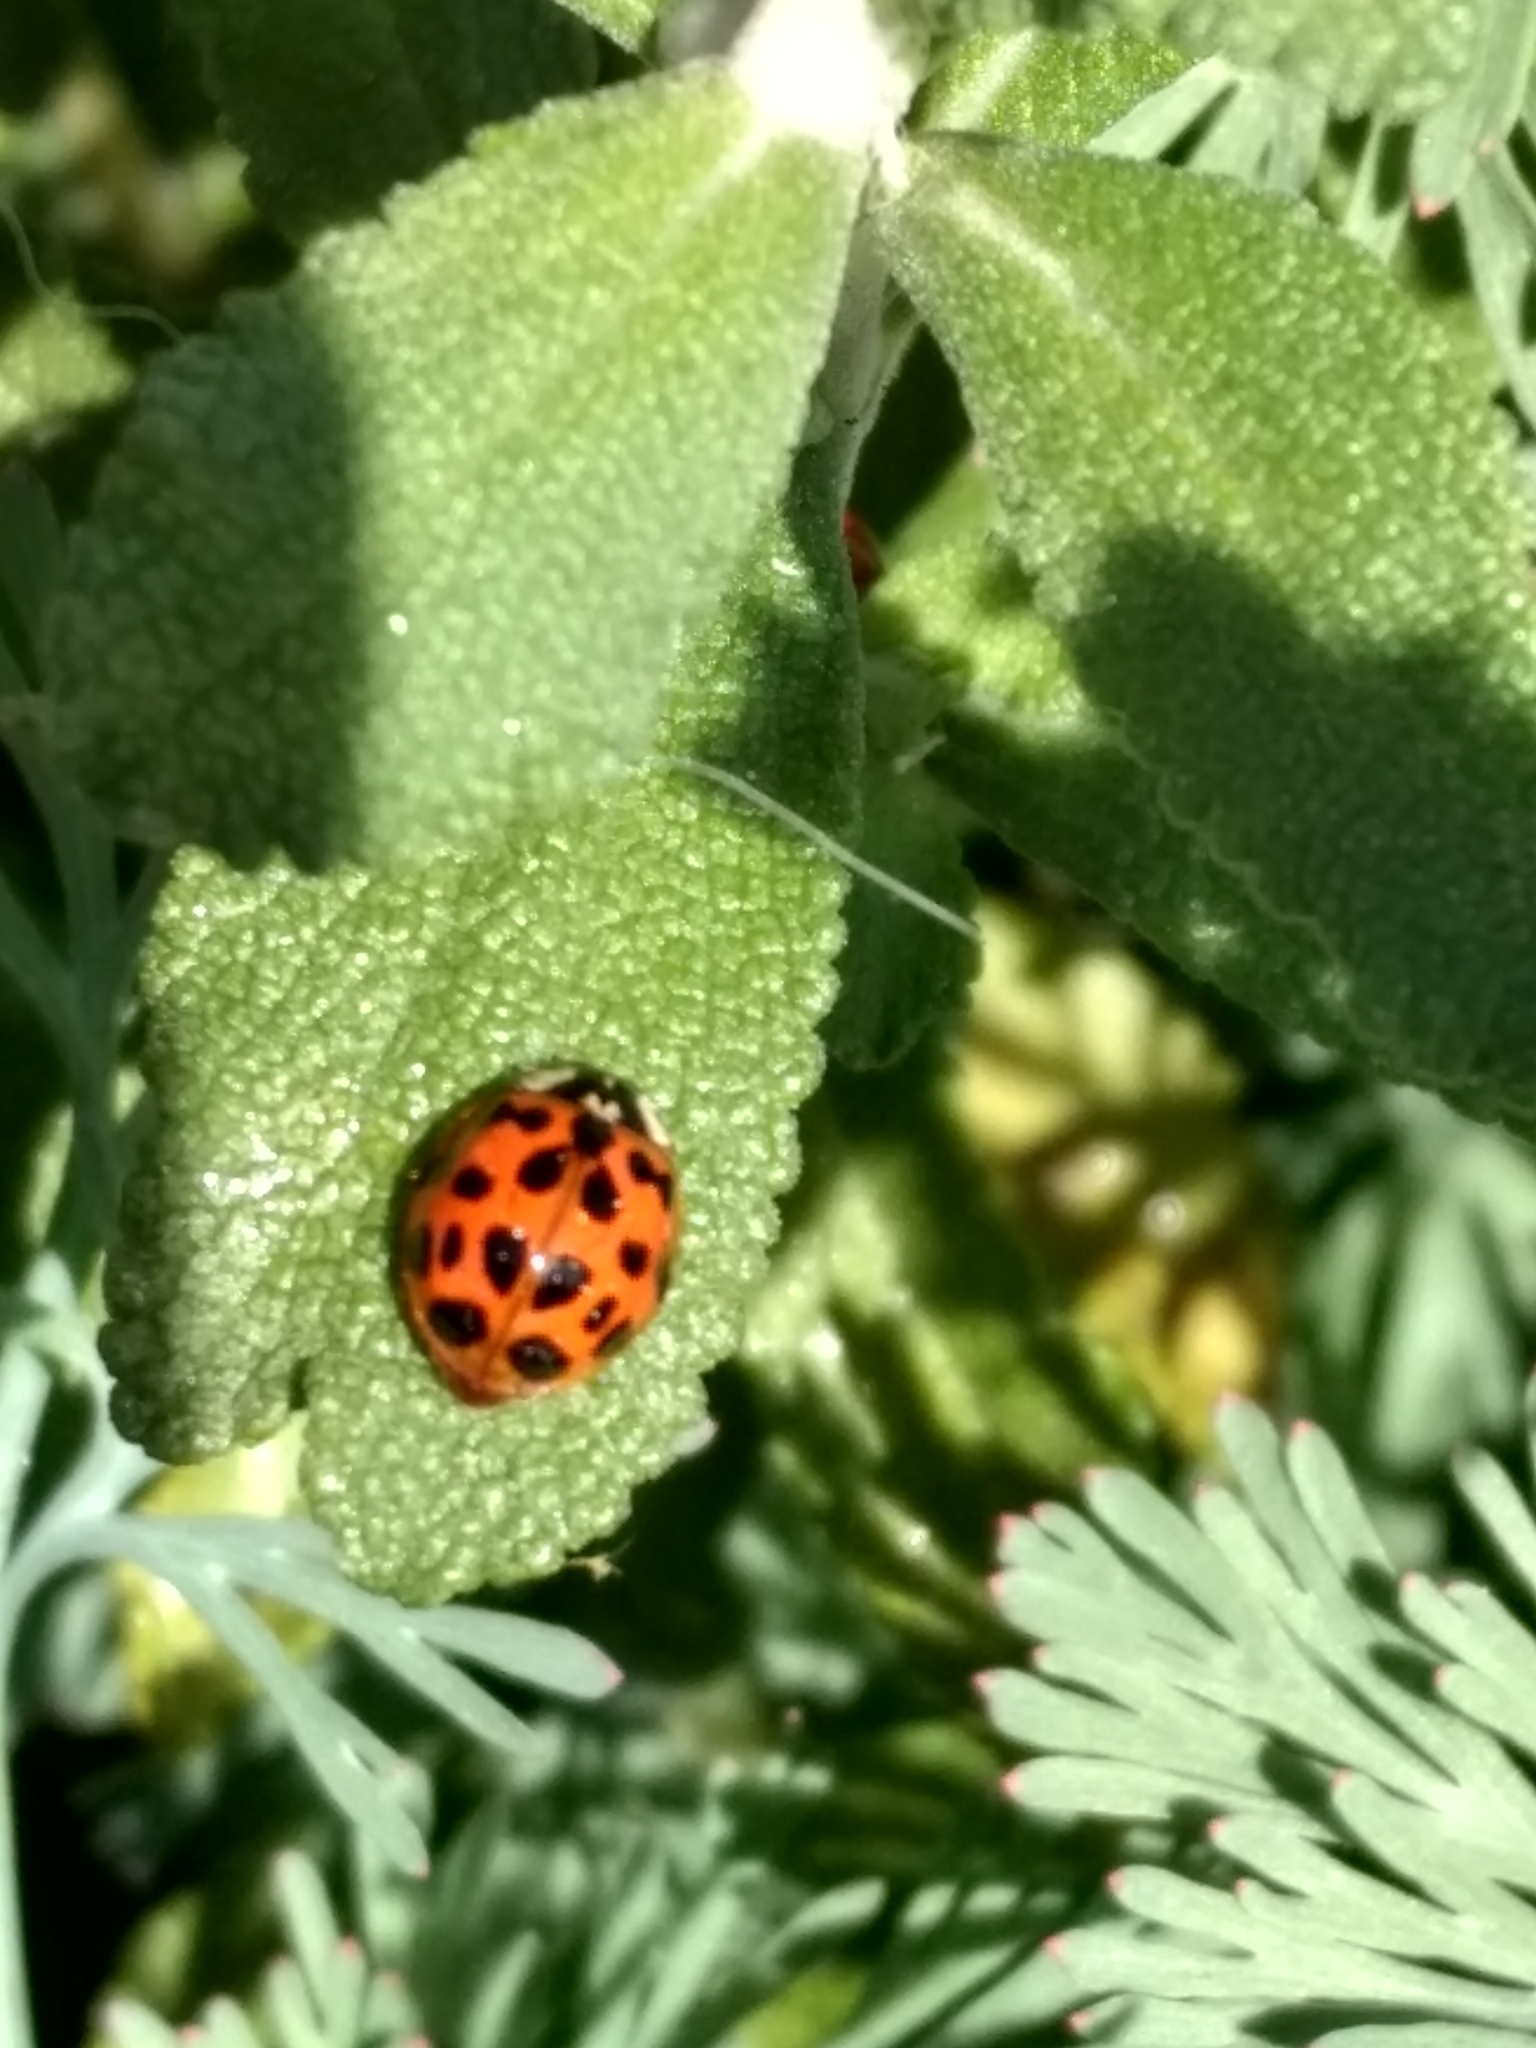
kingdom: Animalia
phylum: Arthropoda
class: Insecta
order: Coleoptera
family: Coccinellidae
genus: Harmonia
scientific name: Harmonia axyridis
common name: Harlequin ladybird
